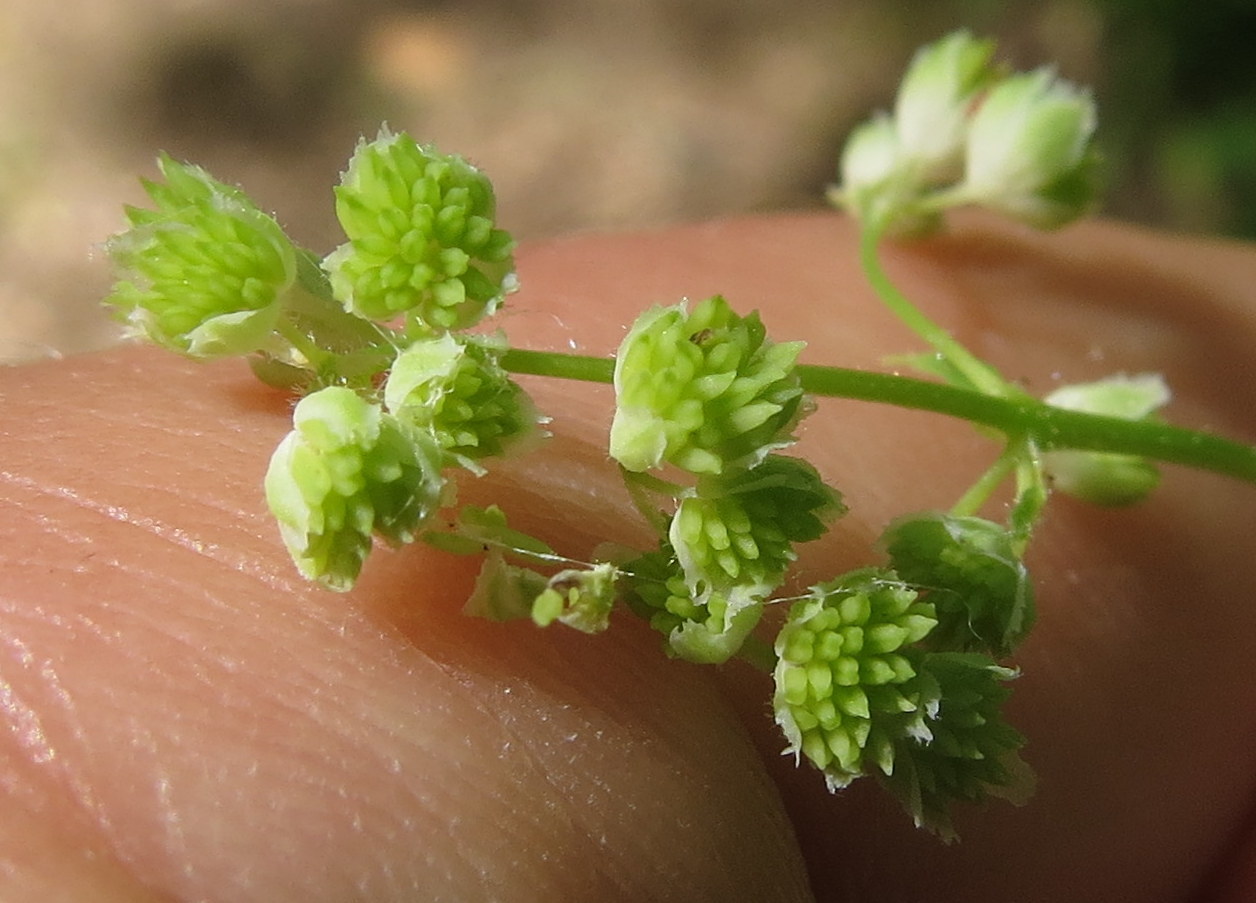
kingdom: Plantae
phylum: Tracheophyta
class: Magnoliopsida
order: Ranunculales
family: Ranunculaceae
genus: Thalictrum
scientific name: Thalictrum dasycarpum
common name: Purple meadow-rue
